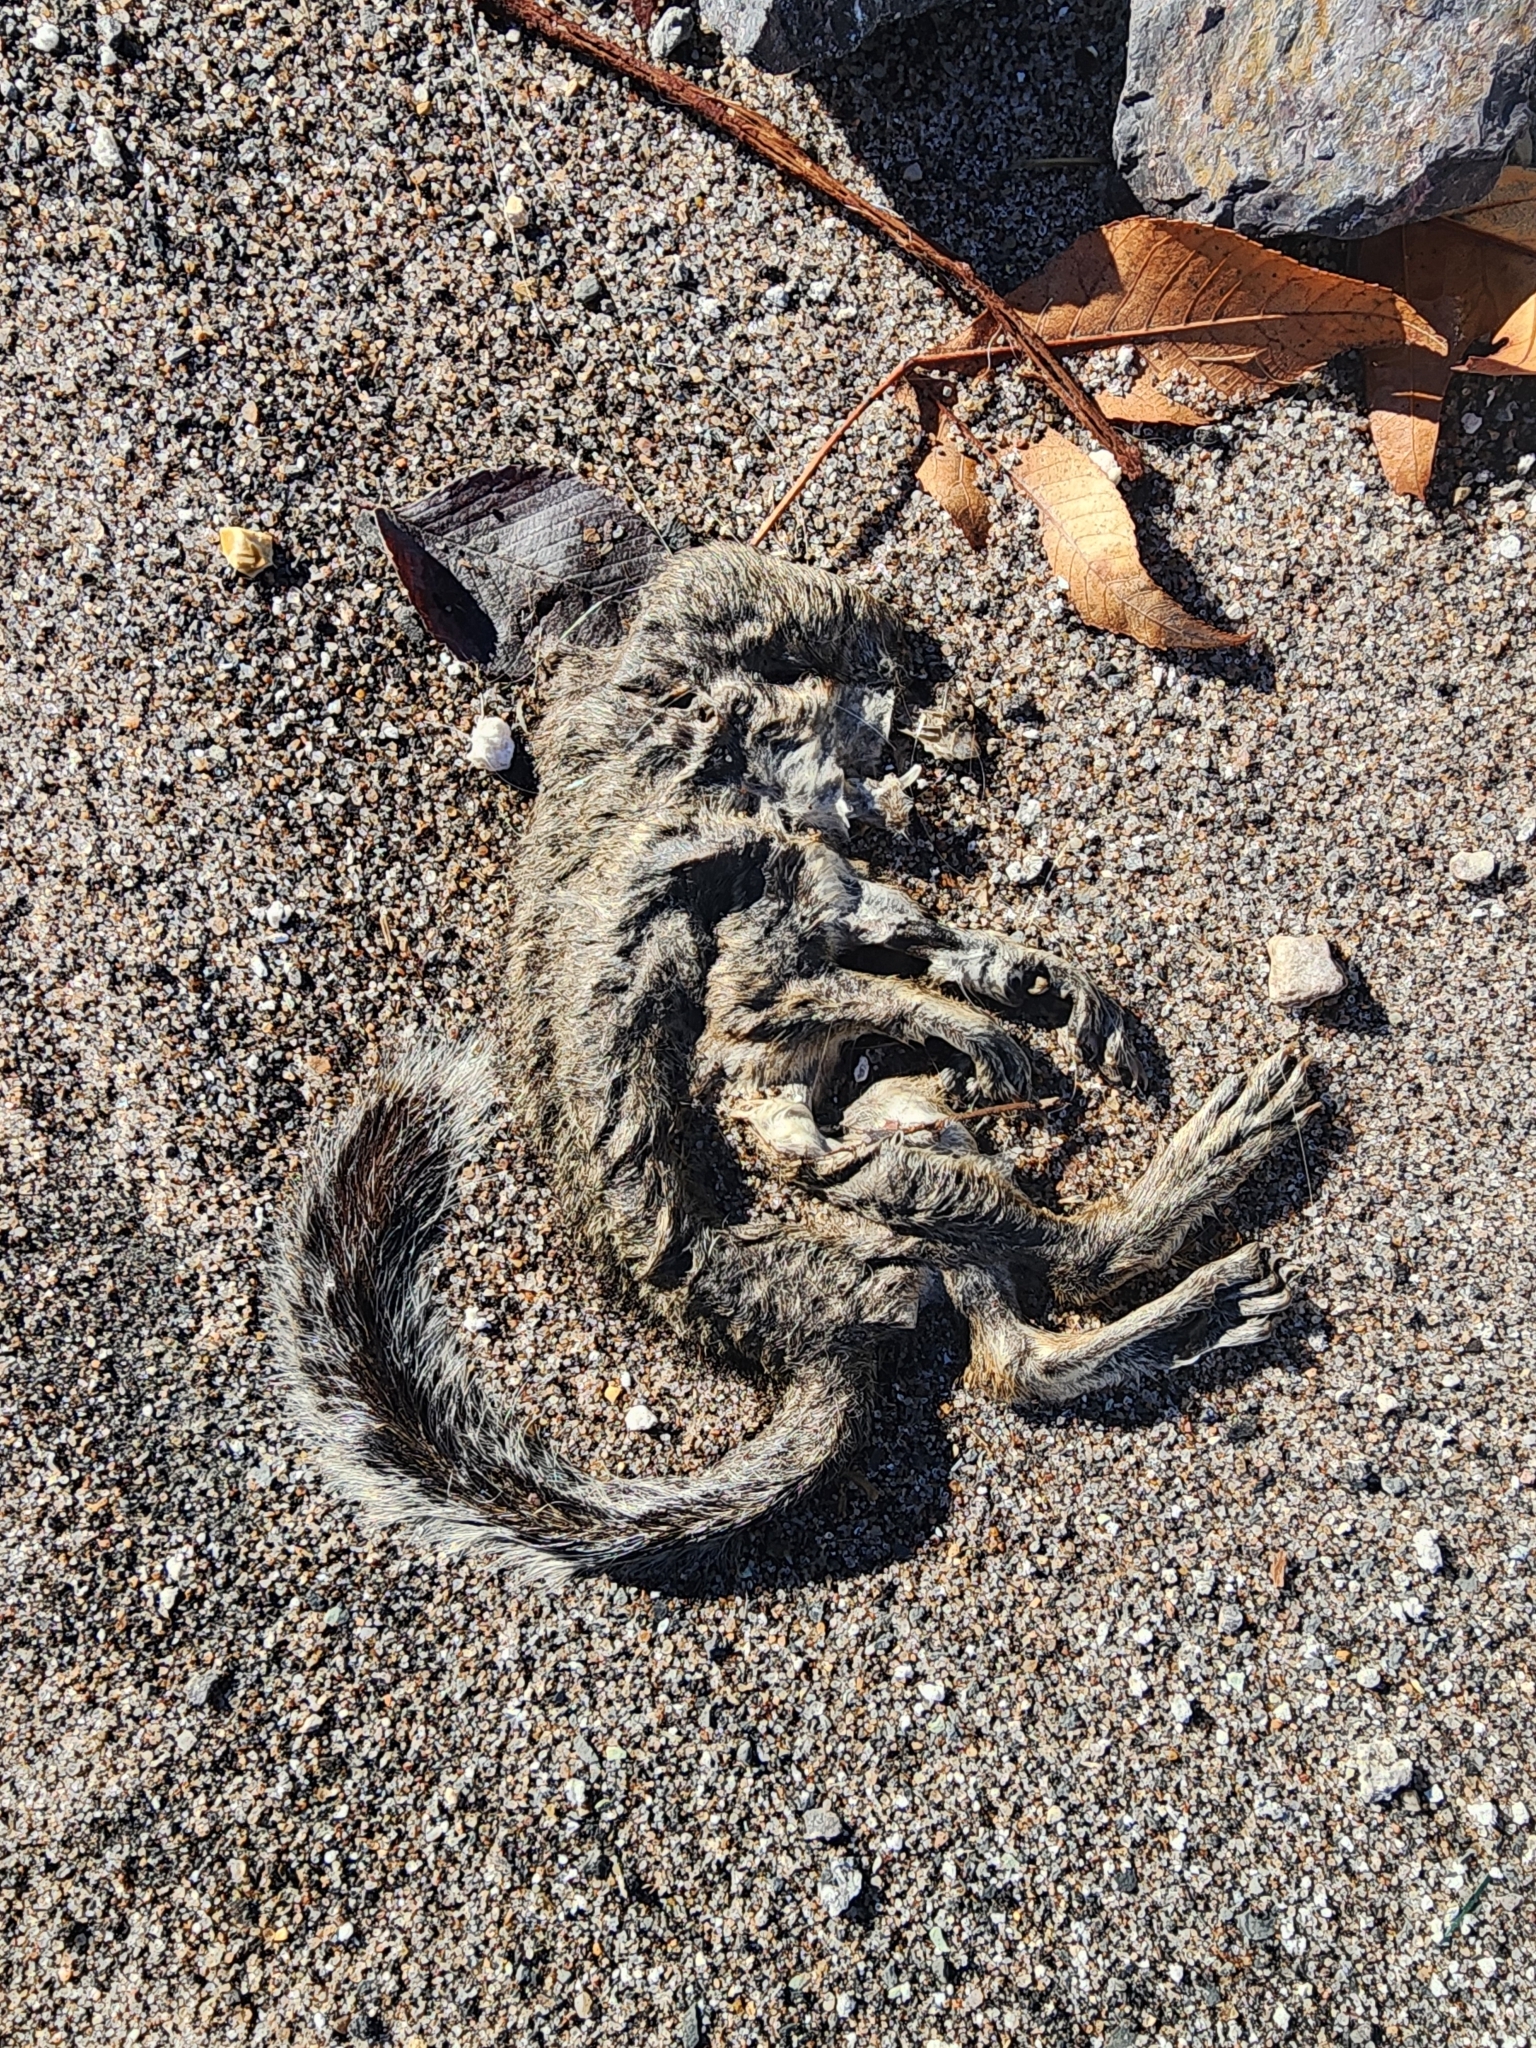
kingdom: Animalia
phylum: Chordata
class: Mammalia
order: Rodentia
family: Sciuridae
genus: Sciurus
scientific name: Sciurus carolinensis
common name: Eastern gray squirrel
